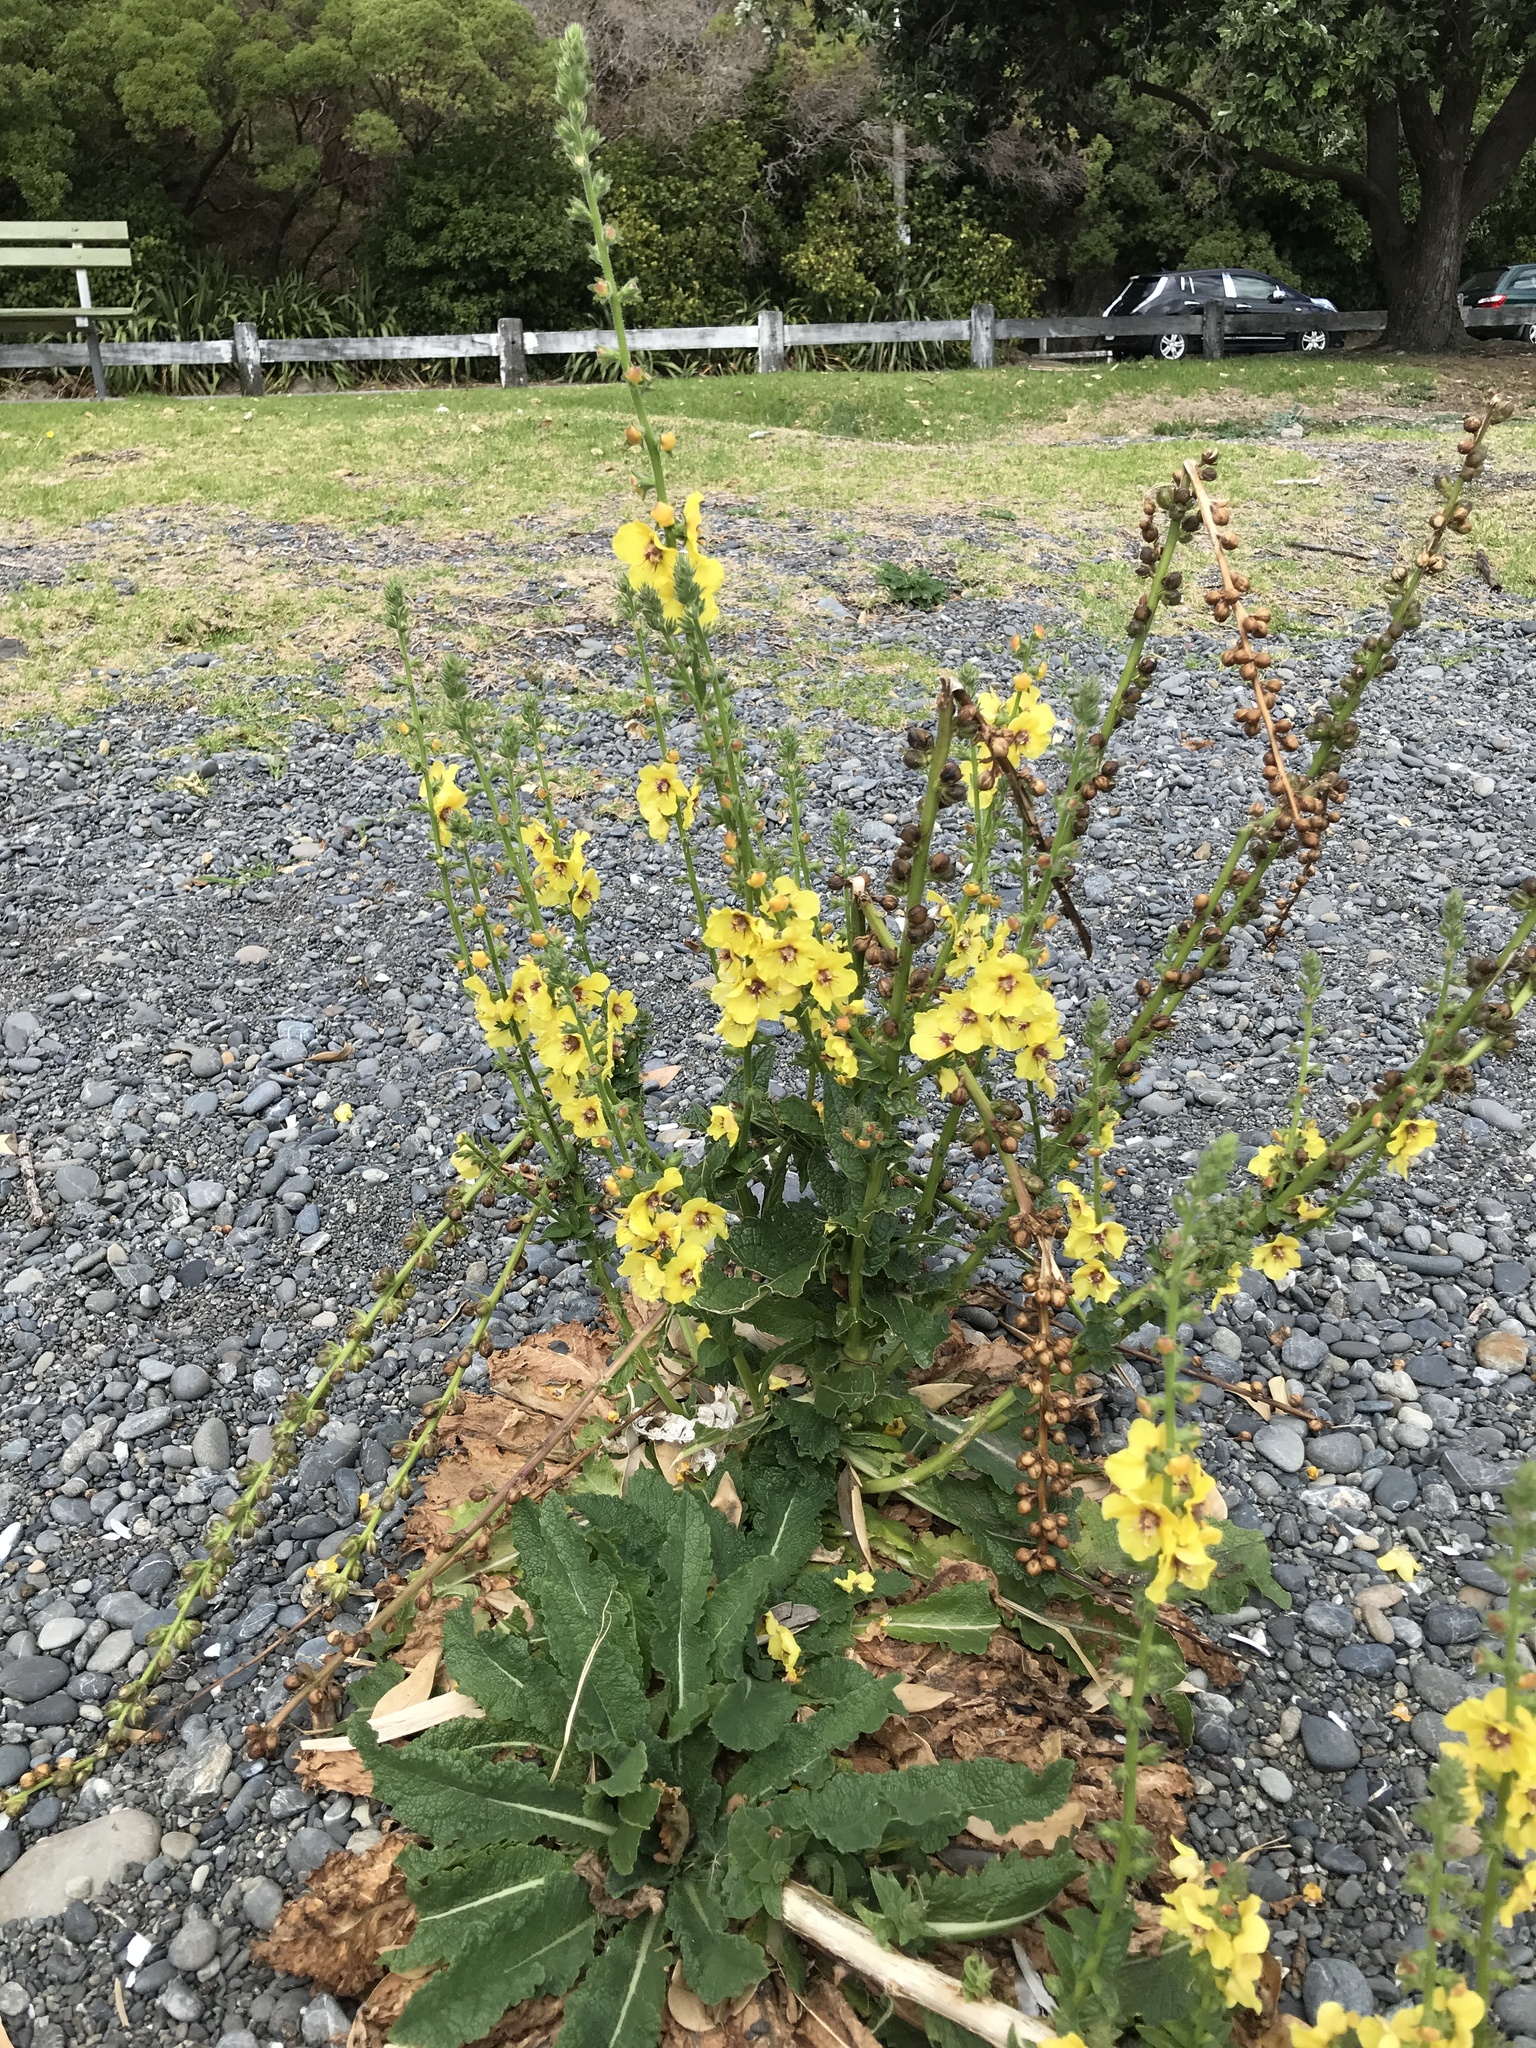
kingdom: Plantae
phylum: Tracheophyta
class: Magnoliopsida
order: Lamiales
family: Scrophulariaceae
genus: Verbascum
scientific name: Verbascum virgatum
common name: Twiggy mullein
